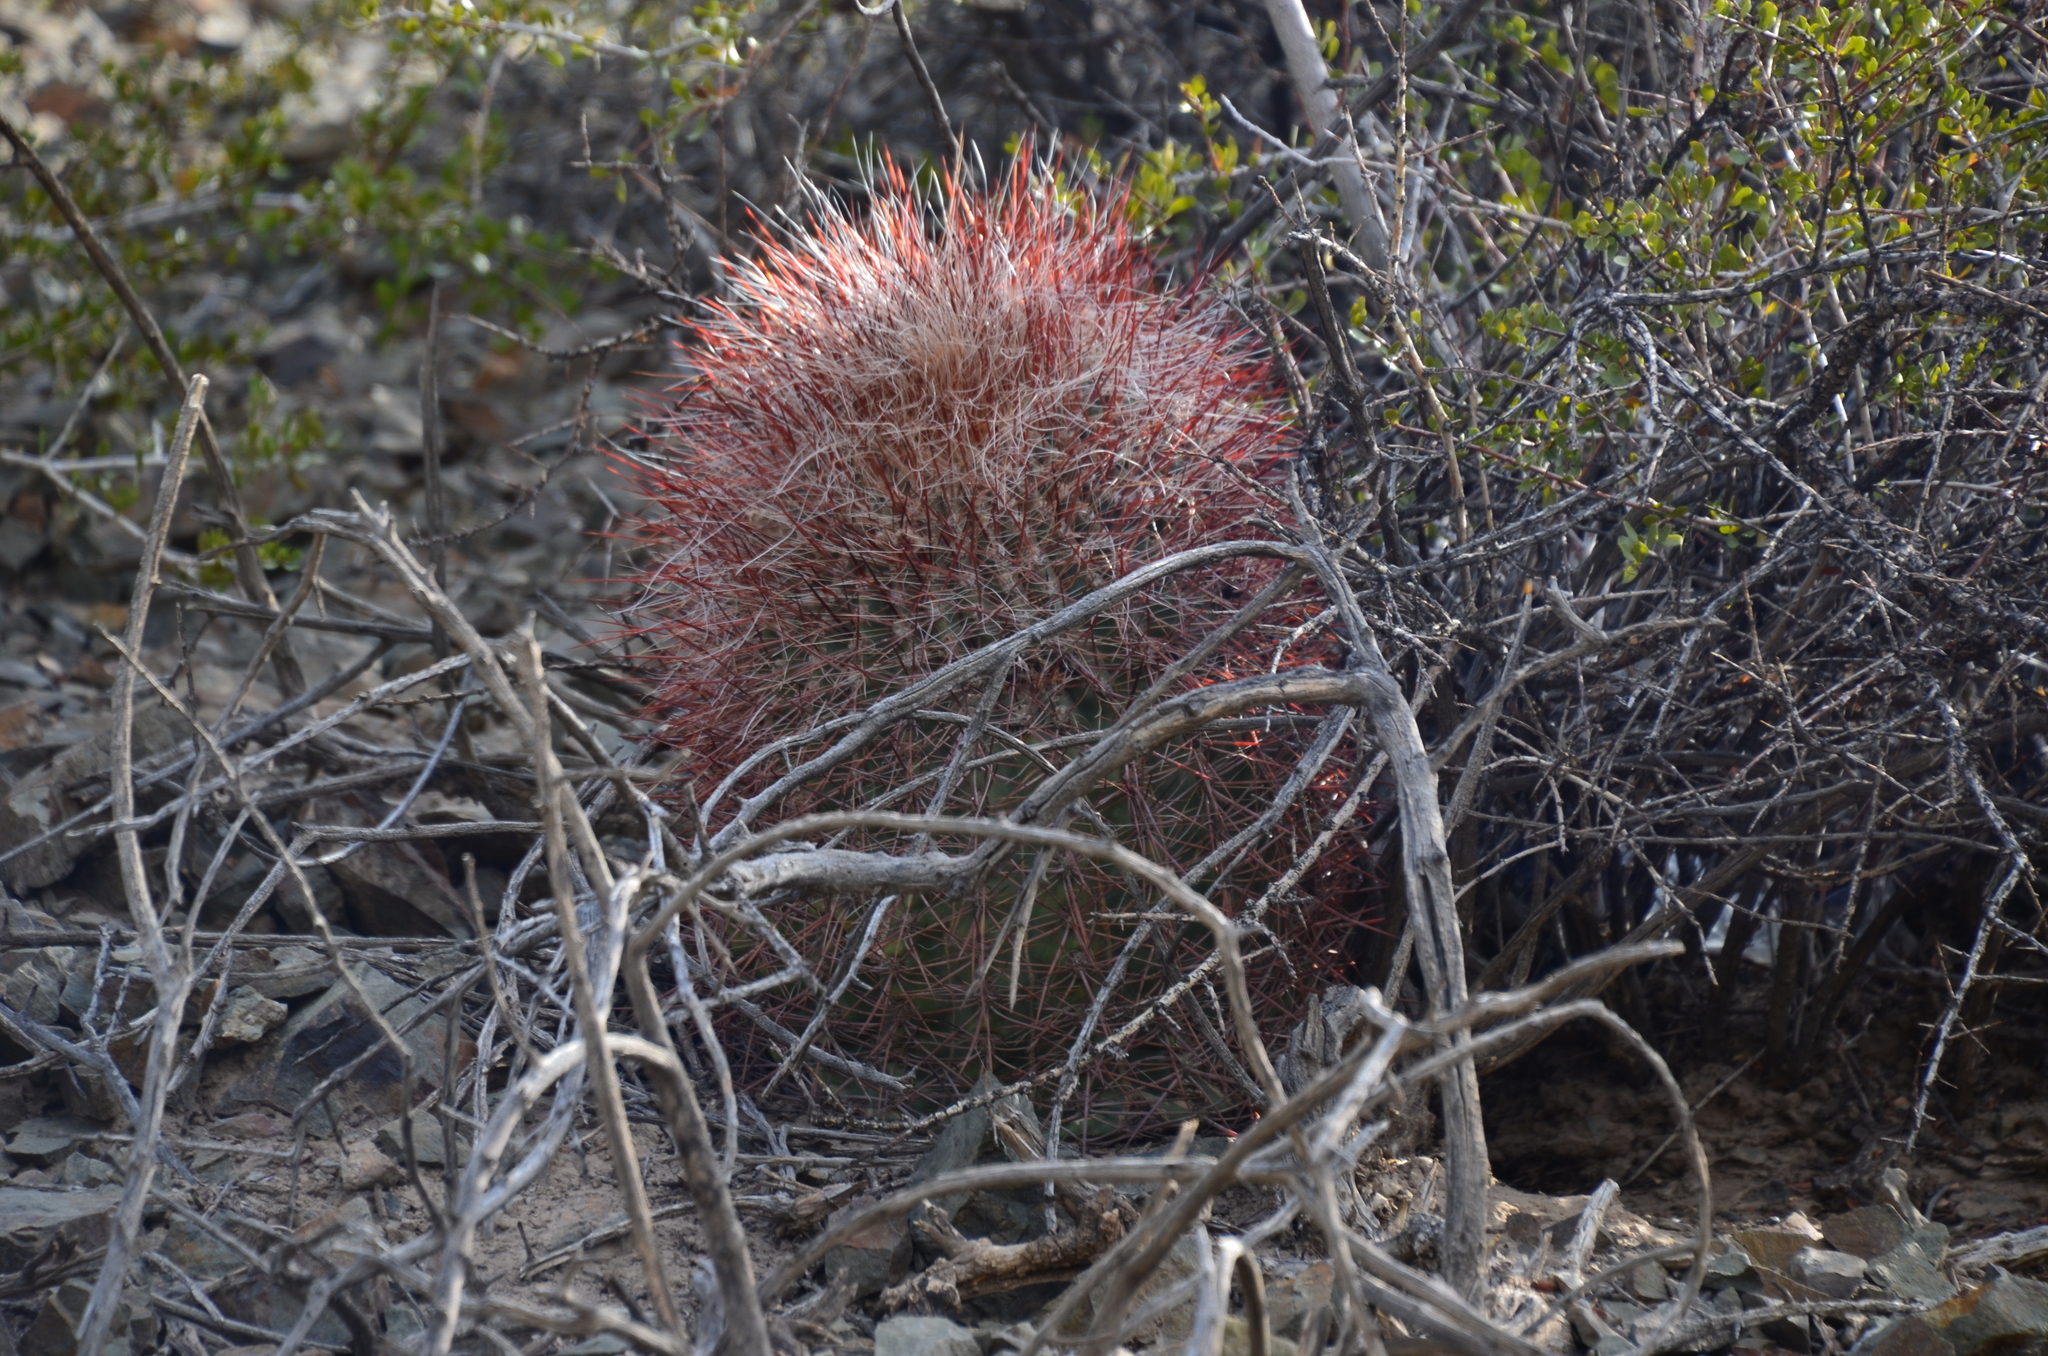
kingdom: Plantae
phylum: Tracheophyta
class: Magnoliopsida
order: Caryophyllales
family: Cactaceae
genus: Denmoza
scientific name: Denmoza rhodacantha
